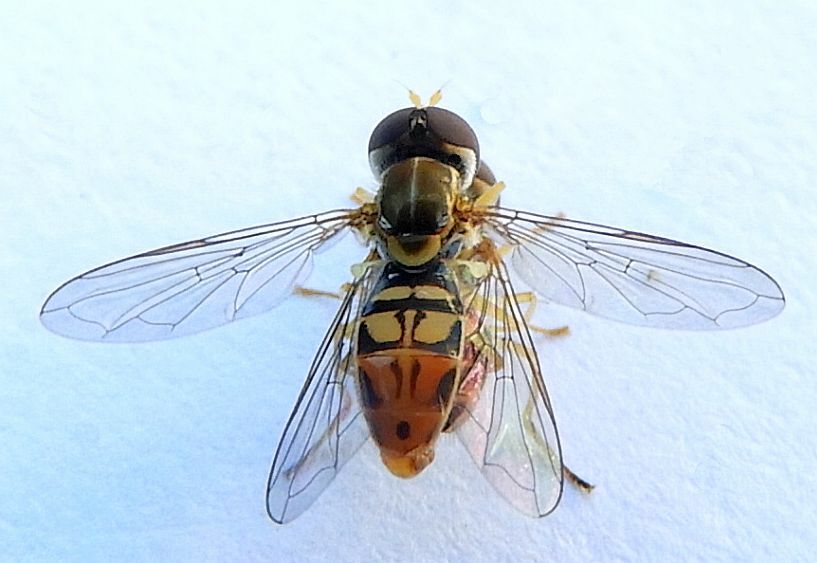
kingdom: Animalia
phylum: Arthropoda
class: Insecta
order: Diptera
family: Syrphidae
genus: Toxomerus
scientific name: Toxomerus marginatus
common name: Syrphid fly
